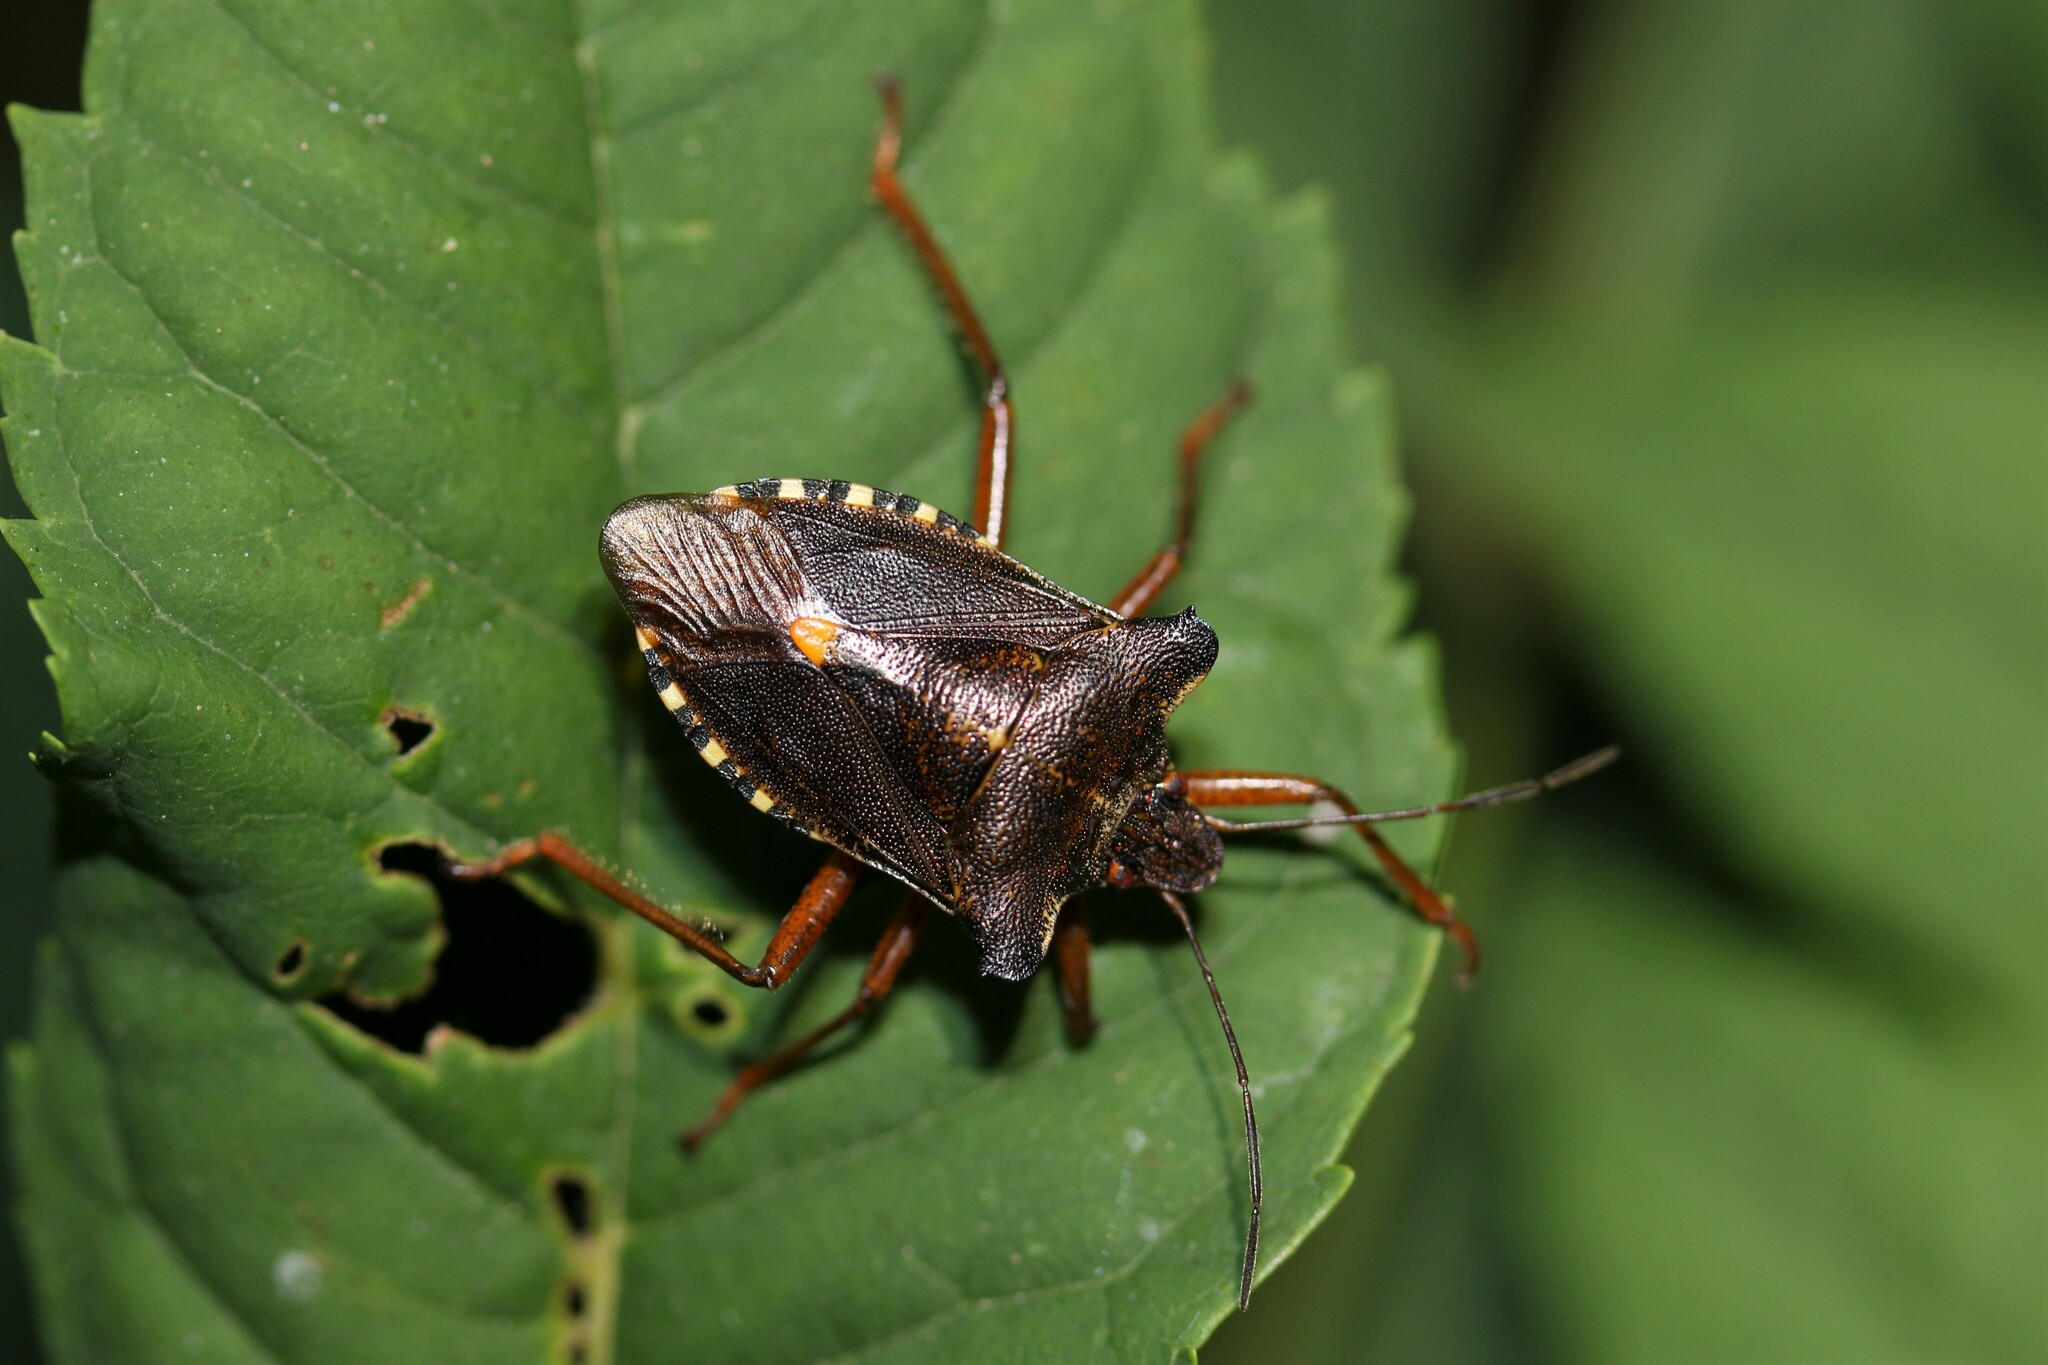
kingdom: Animalia
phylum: Arthropoda
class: Insecta
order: Hemiptera
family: Pentatomidae
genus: Pentatoma
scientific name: Pentatoma rufipes
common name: Forest bug
